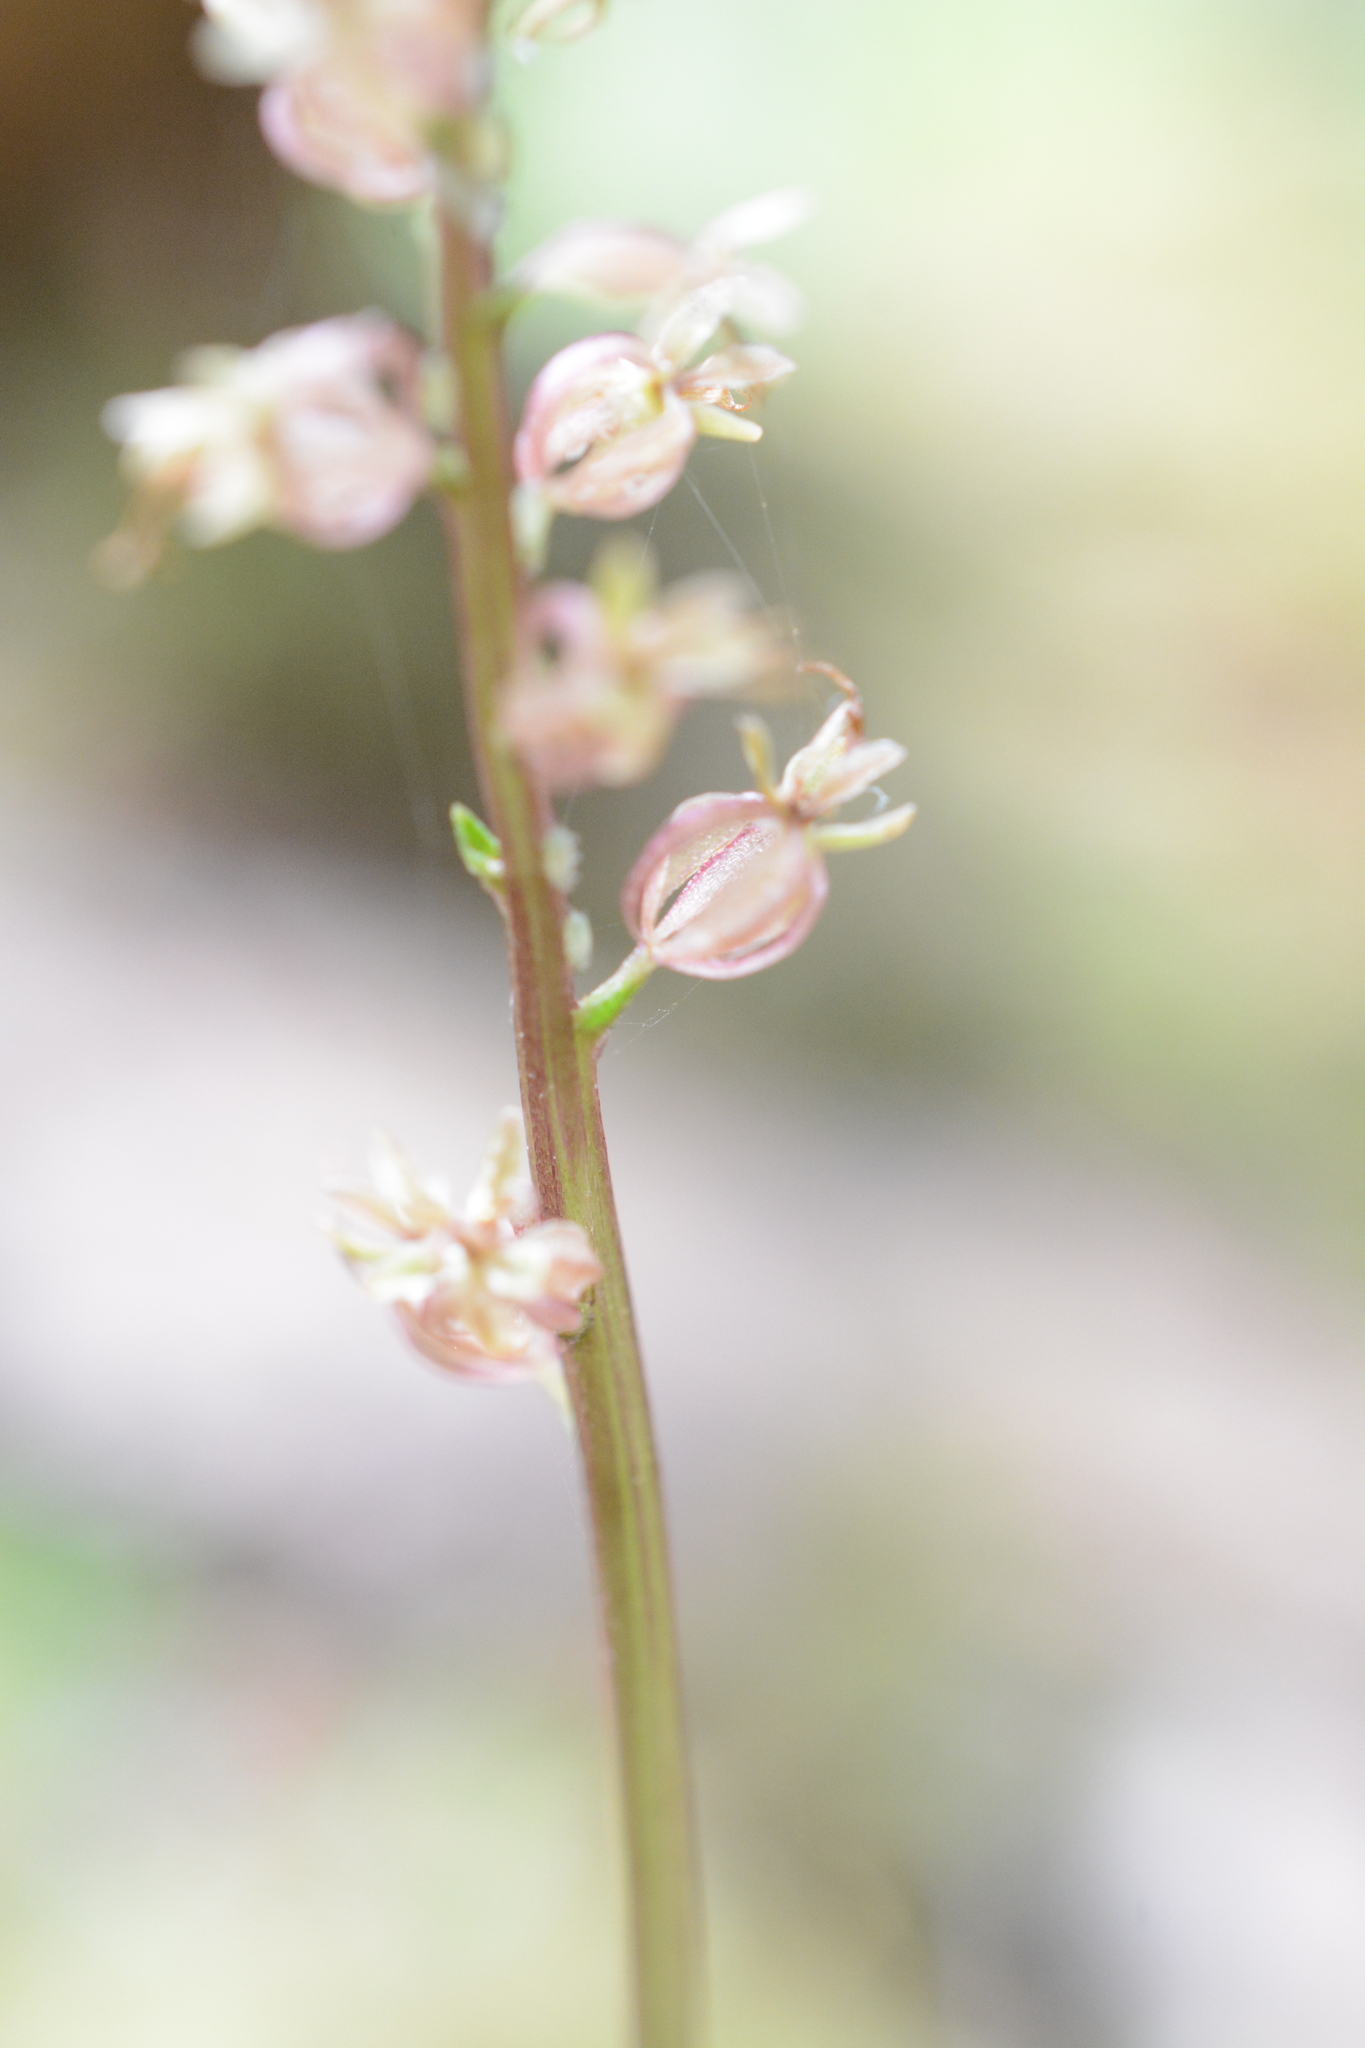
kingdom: Plantae
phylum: Tracheophyta
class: Liliopsida
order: Asparagales
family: Orchidaceae
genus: Neottia
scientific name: Neottia cordata
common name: Lesser twayblade
